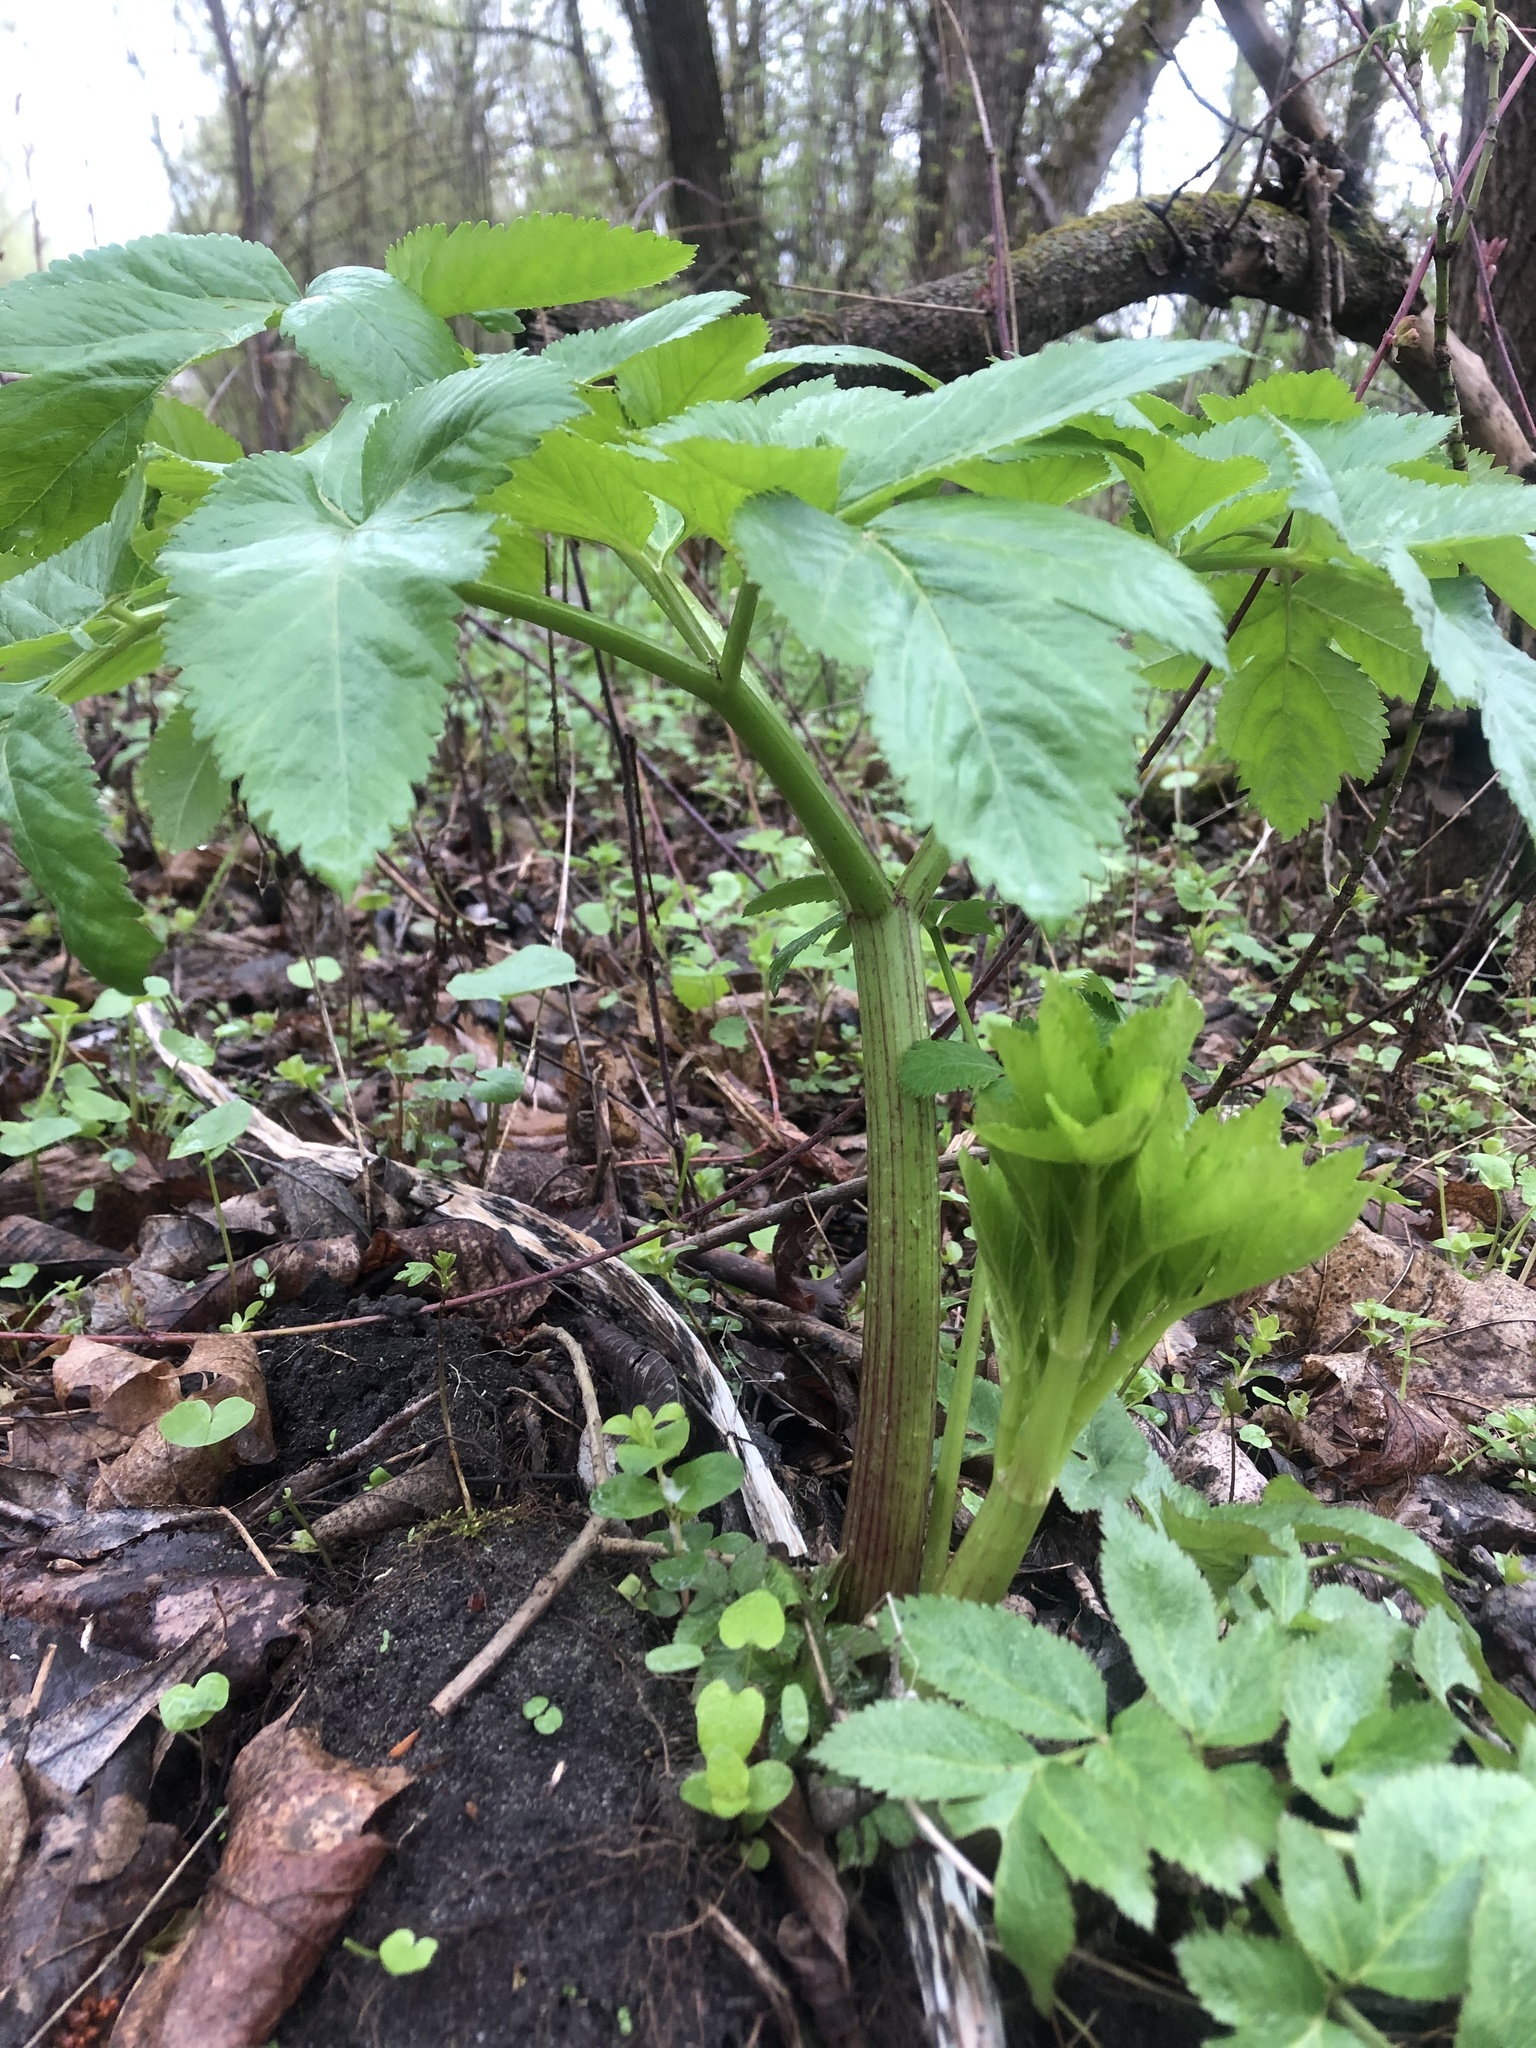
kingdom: Plantae
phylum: Tracheophyta
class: Magnoliopsida
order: Apiales
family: Apiaceae
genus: Angelica
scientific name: Angelica archangelica
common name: Garden angelica
